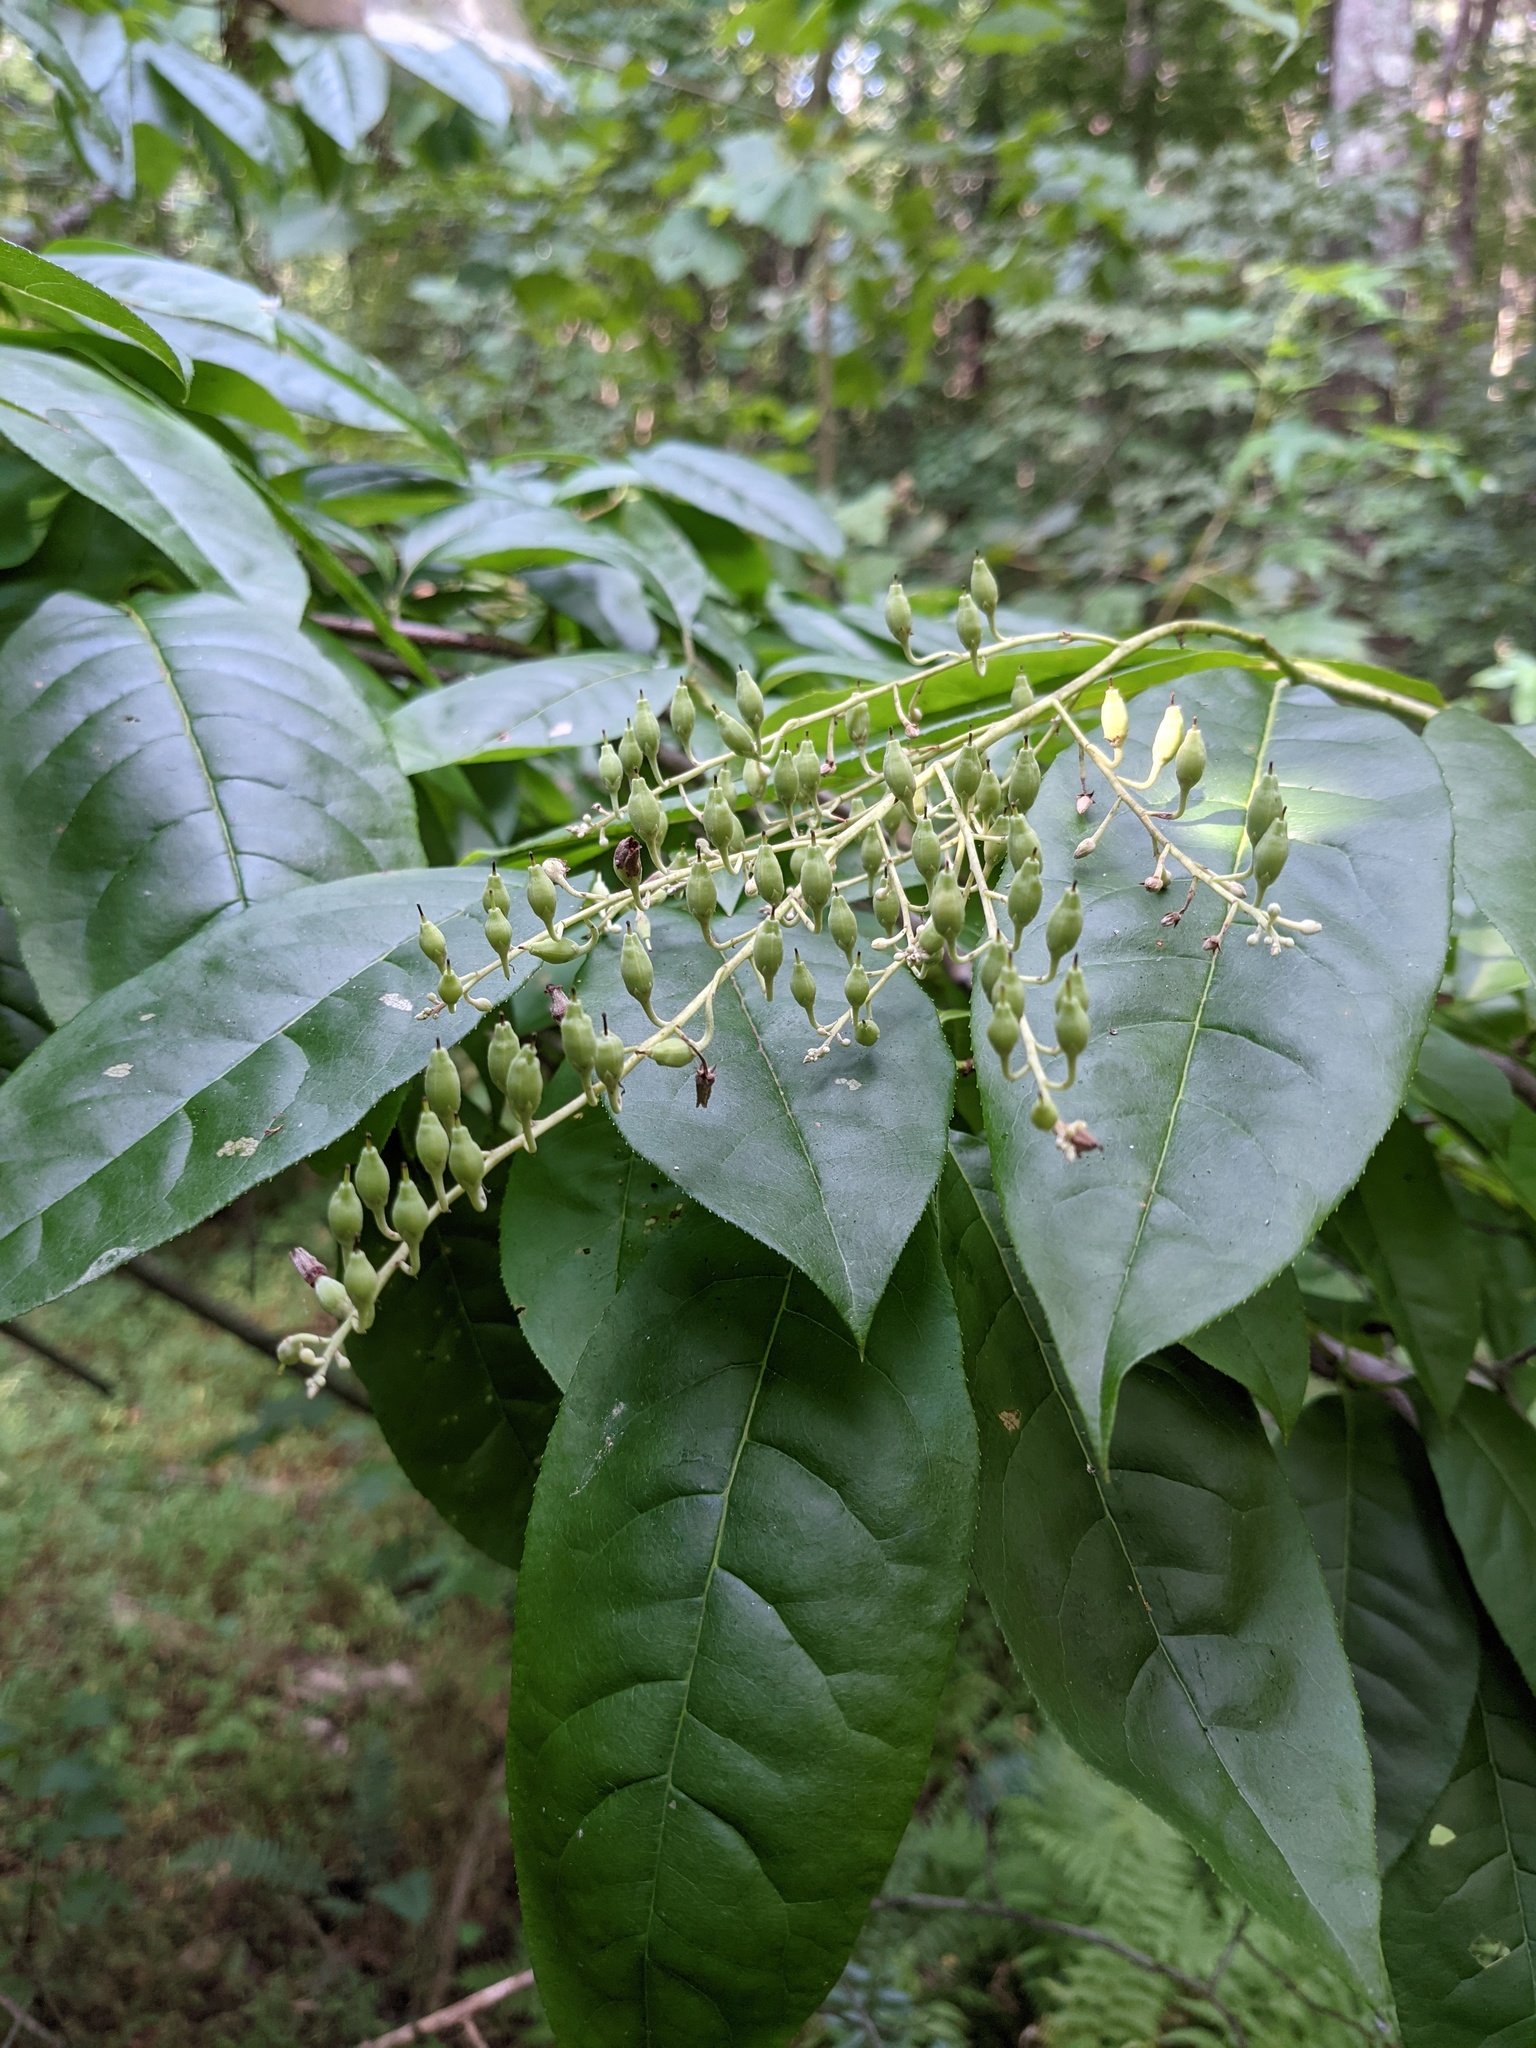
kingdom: Plantae
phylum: Tracheophyta
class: Magnoliopsida
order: Ericales
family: Ericaceae
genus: Oxydendrum
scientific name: Oxydendrum arboreum
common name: Sourwood
